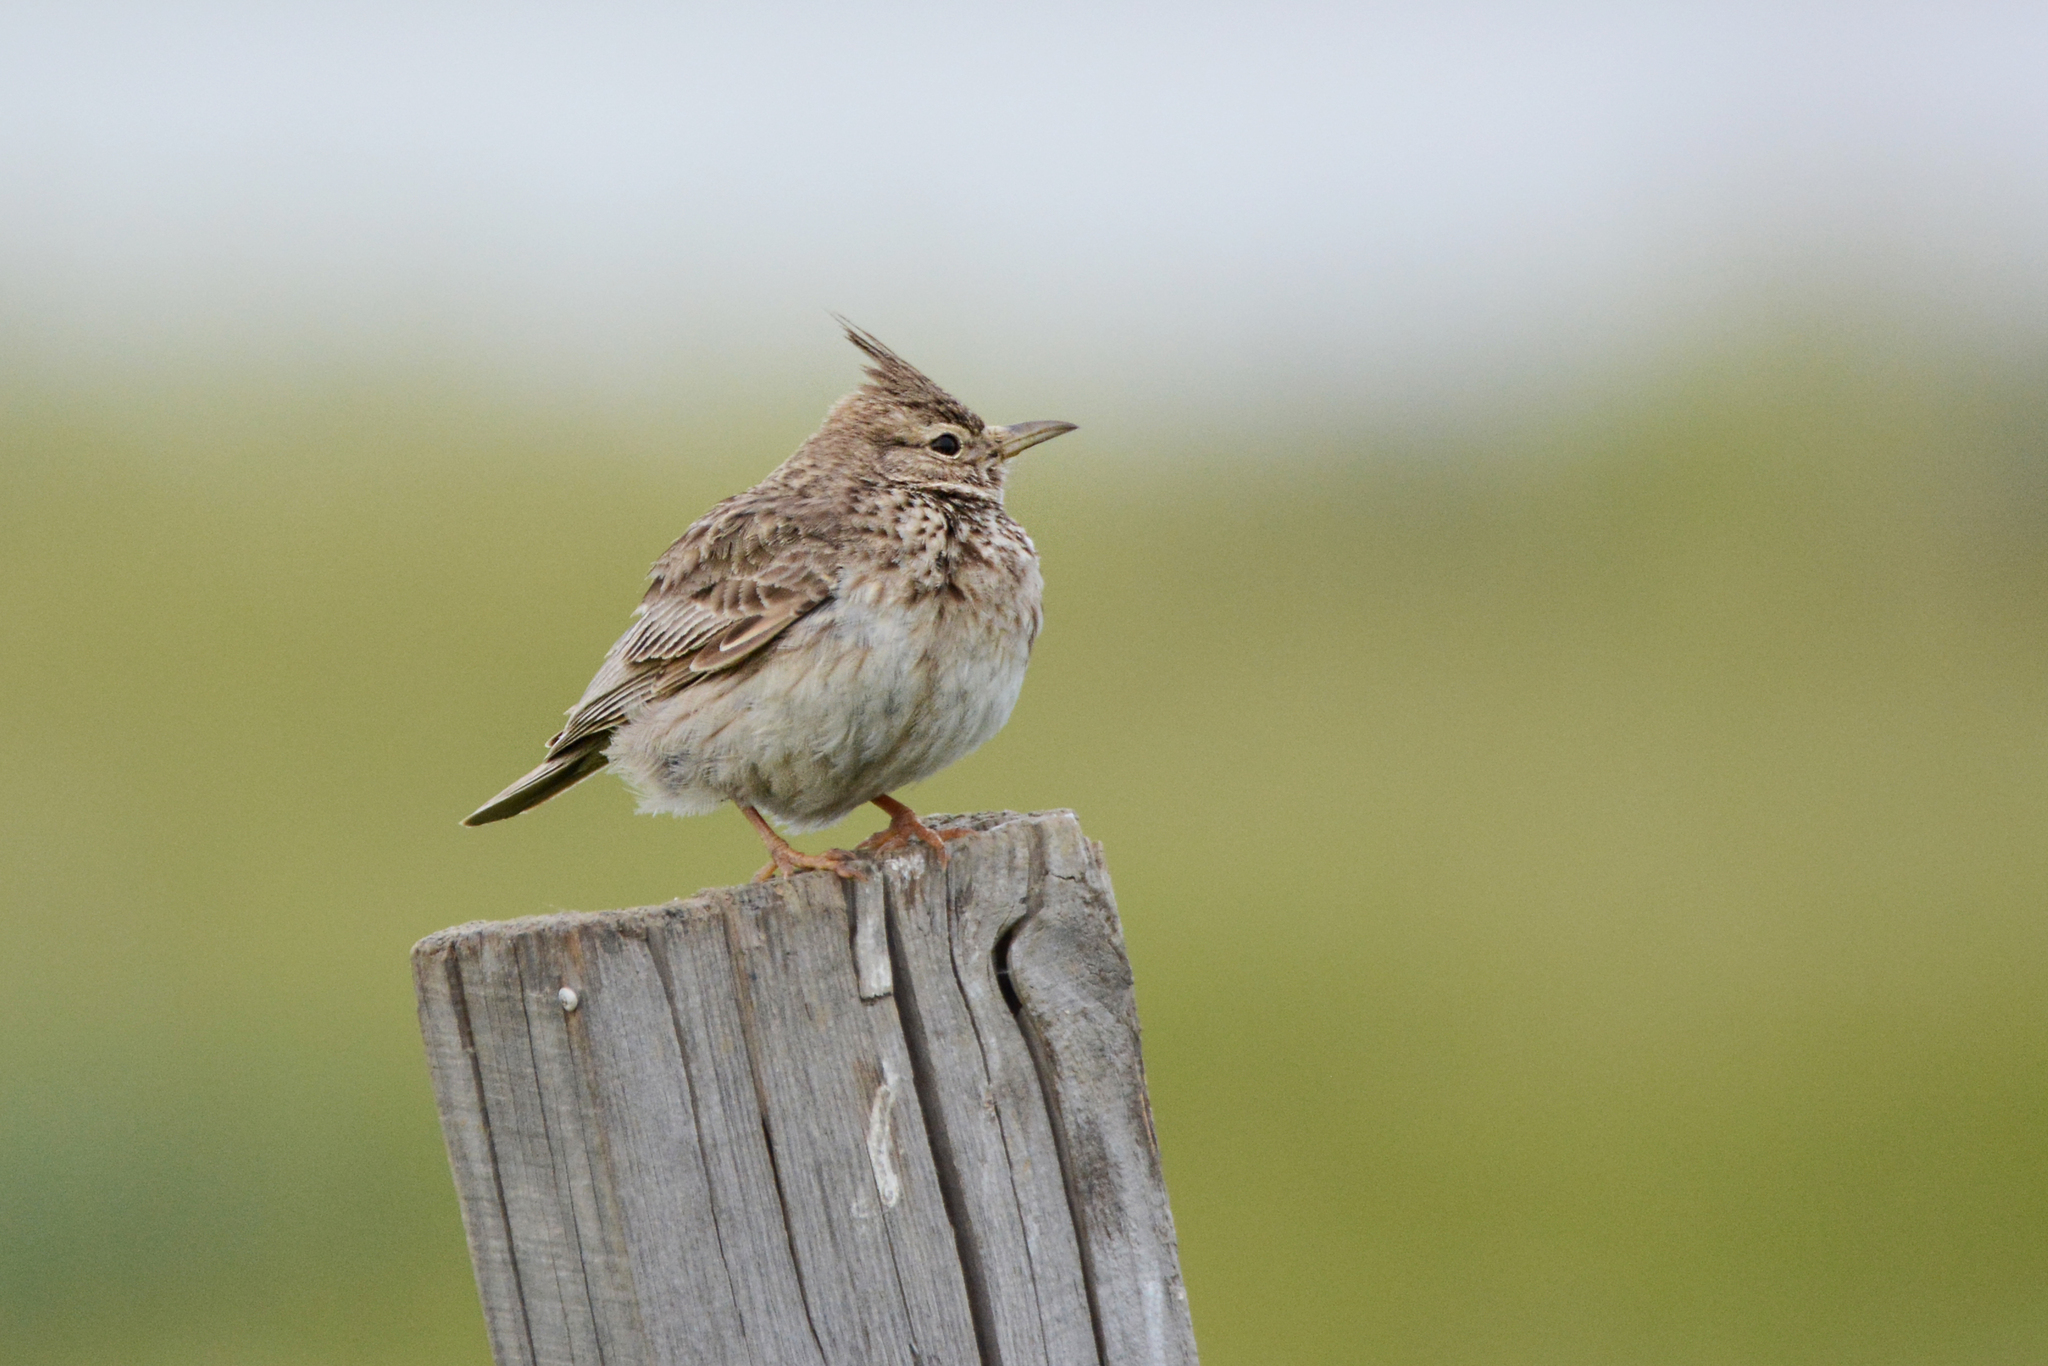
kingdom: Animalia
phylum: Chordata
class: Aves
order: Passeriformes
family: Alaudidae
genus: Galerida
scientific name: Galerida cristata
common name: Crested lark
